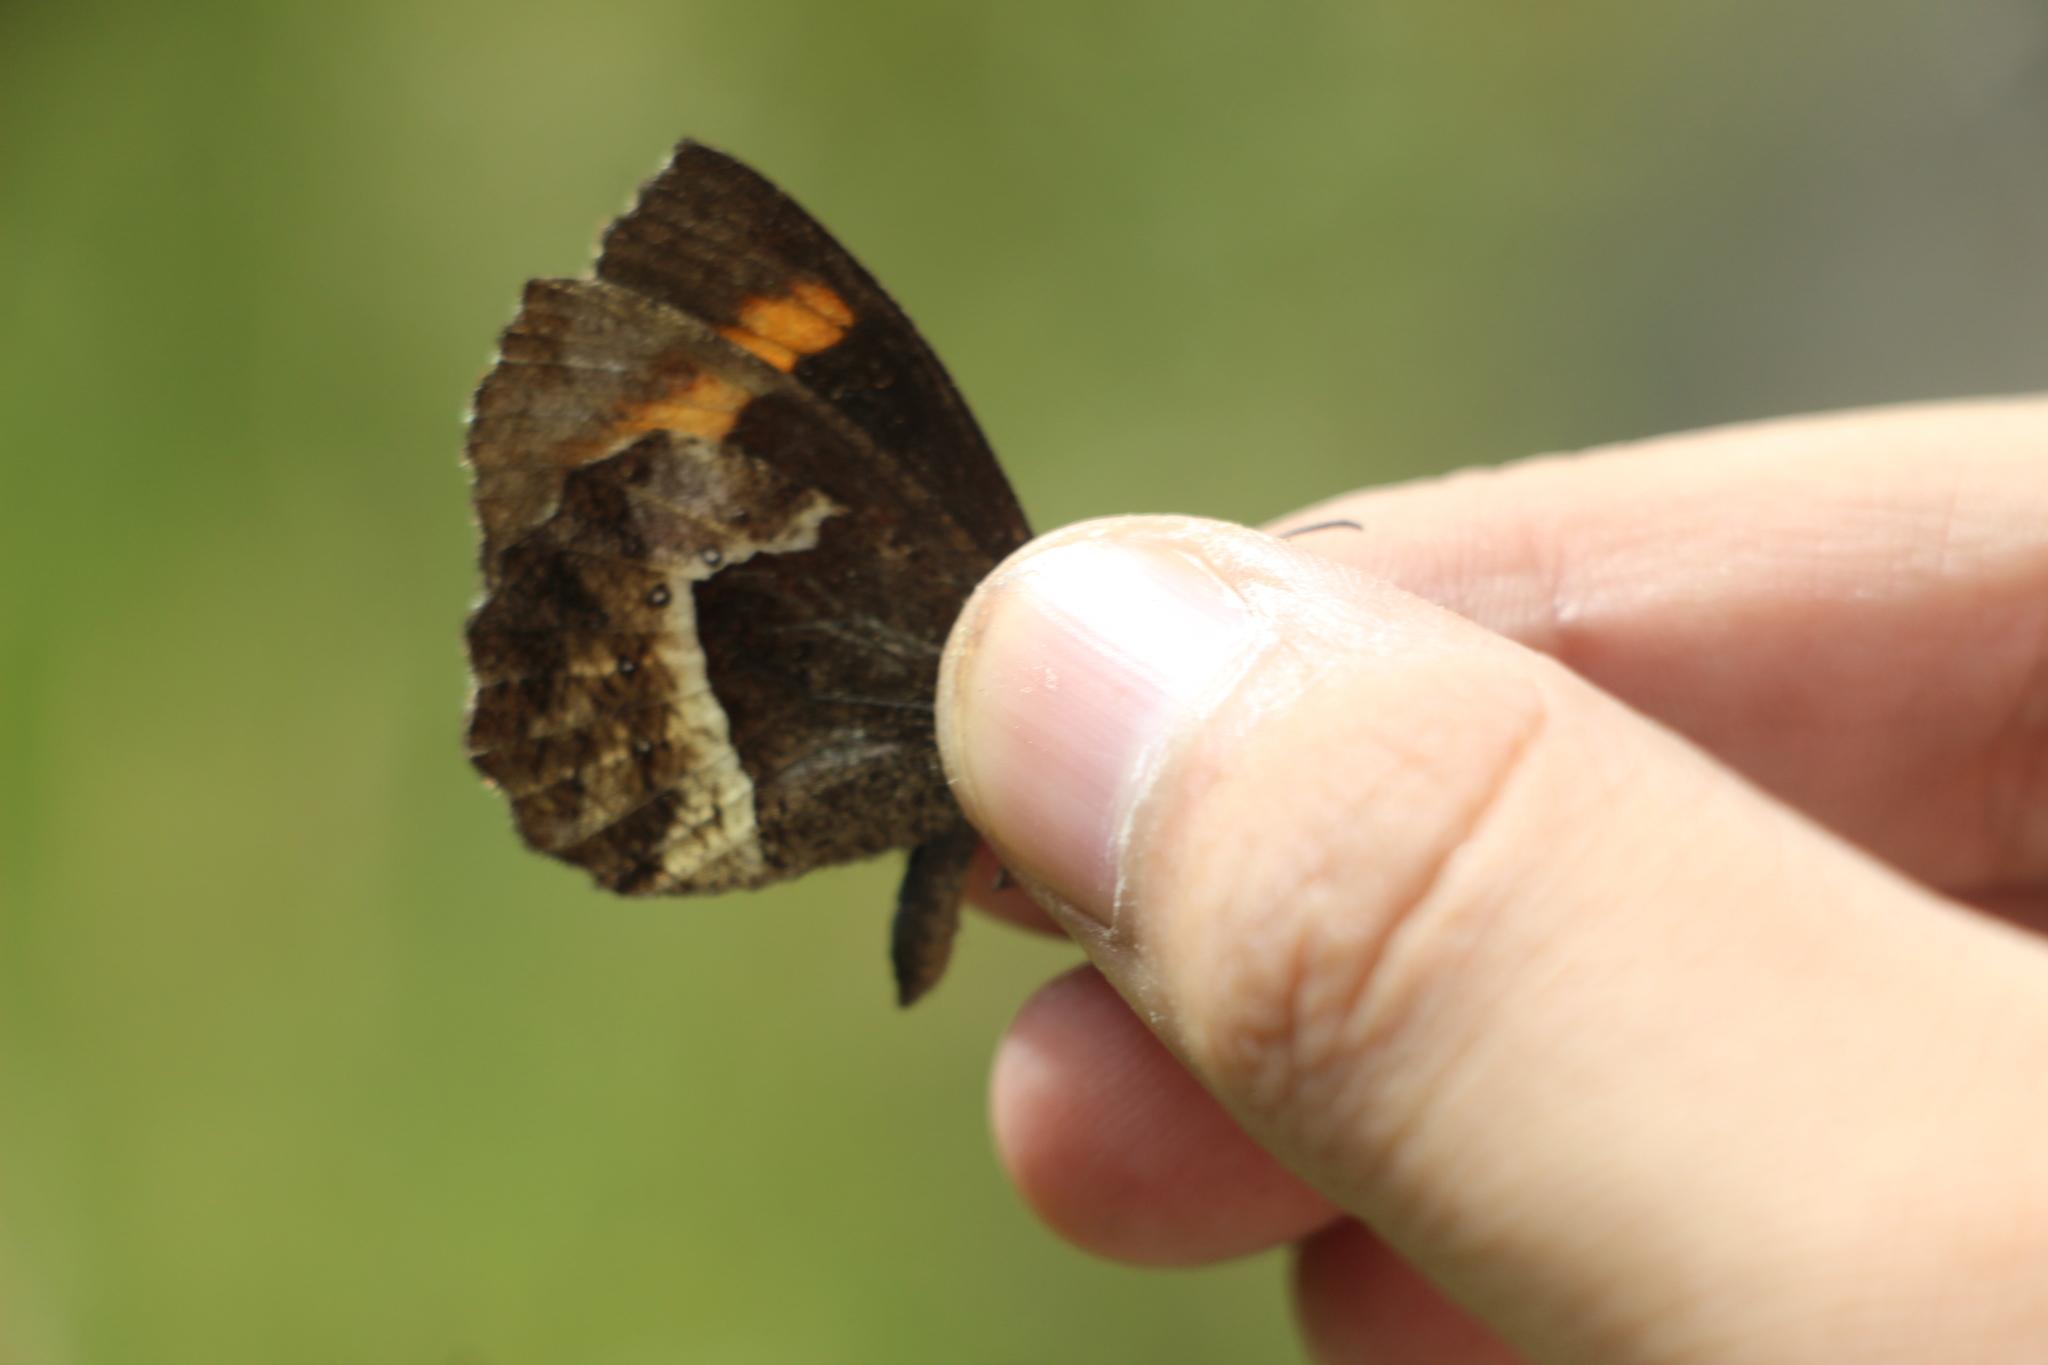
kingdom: Animalia
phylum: Arthropoda
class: Insecta
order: Lepidoptera
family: Nymphalidae
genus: Pedaliodes
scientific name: Pedaliodes phaea
